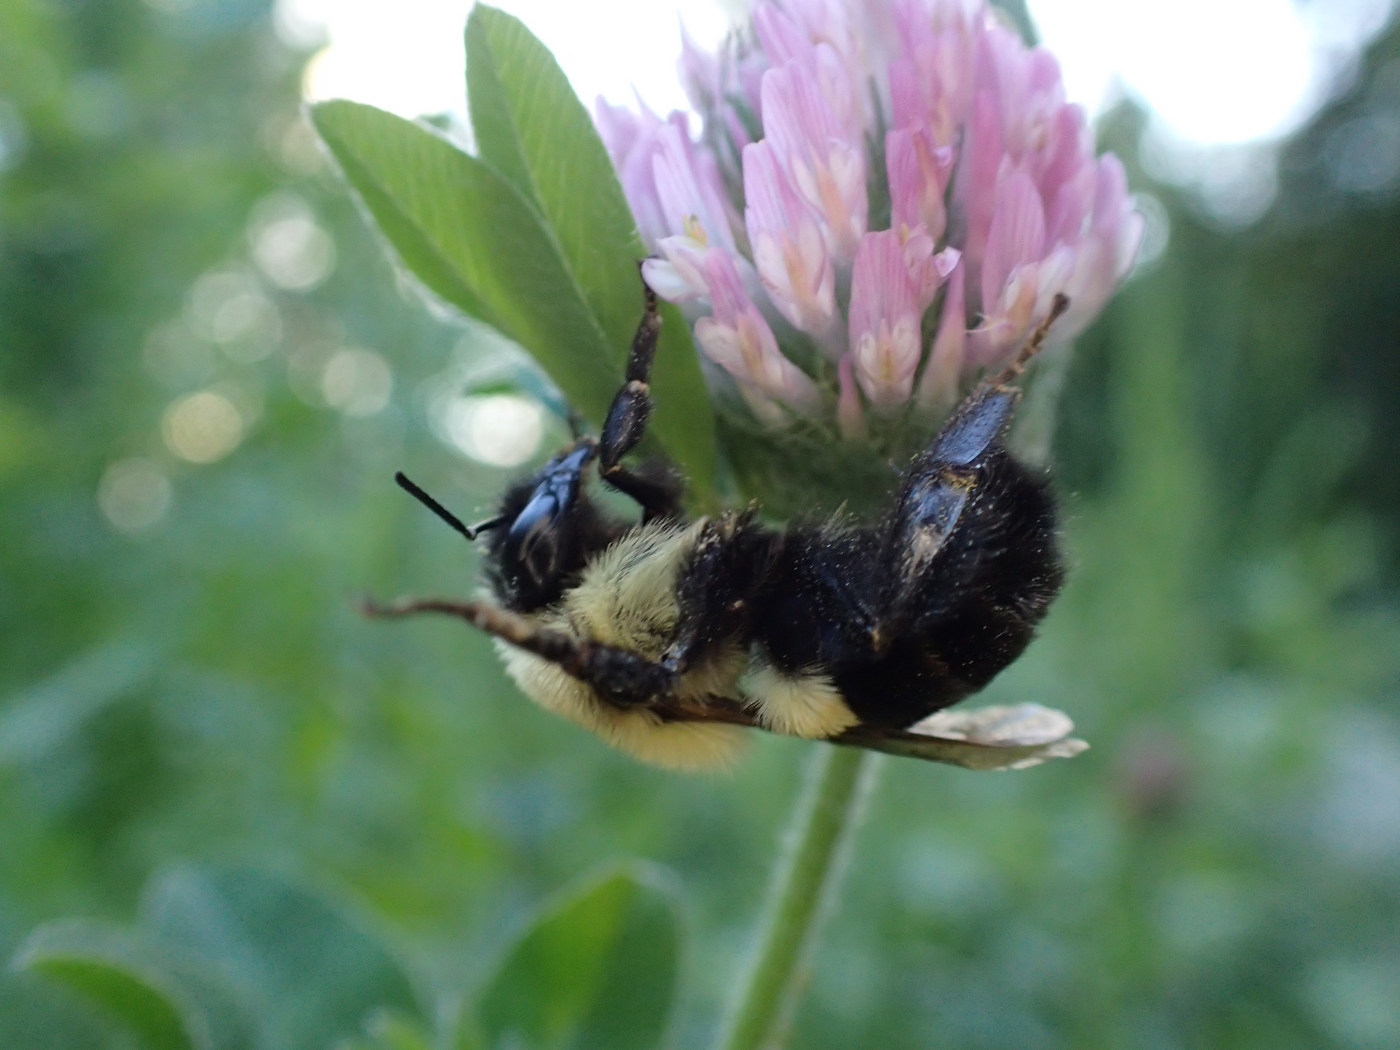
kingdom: Animalia
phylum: Arthropoda
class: Insecta
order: Hymenoptera
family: Apidae
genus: Bombus
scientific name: Bombus impatiens
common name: Common eastern bumble bee
